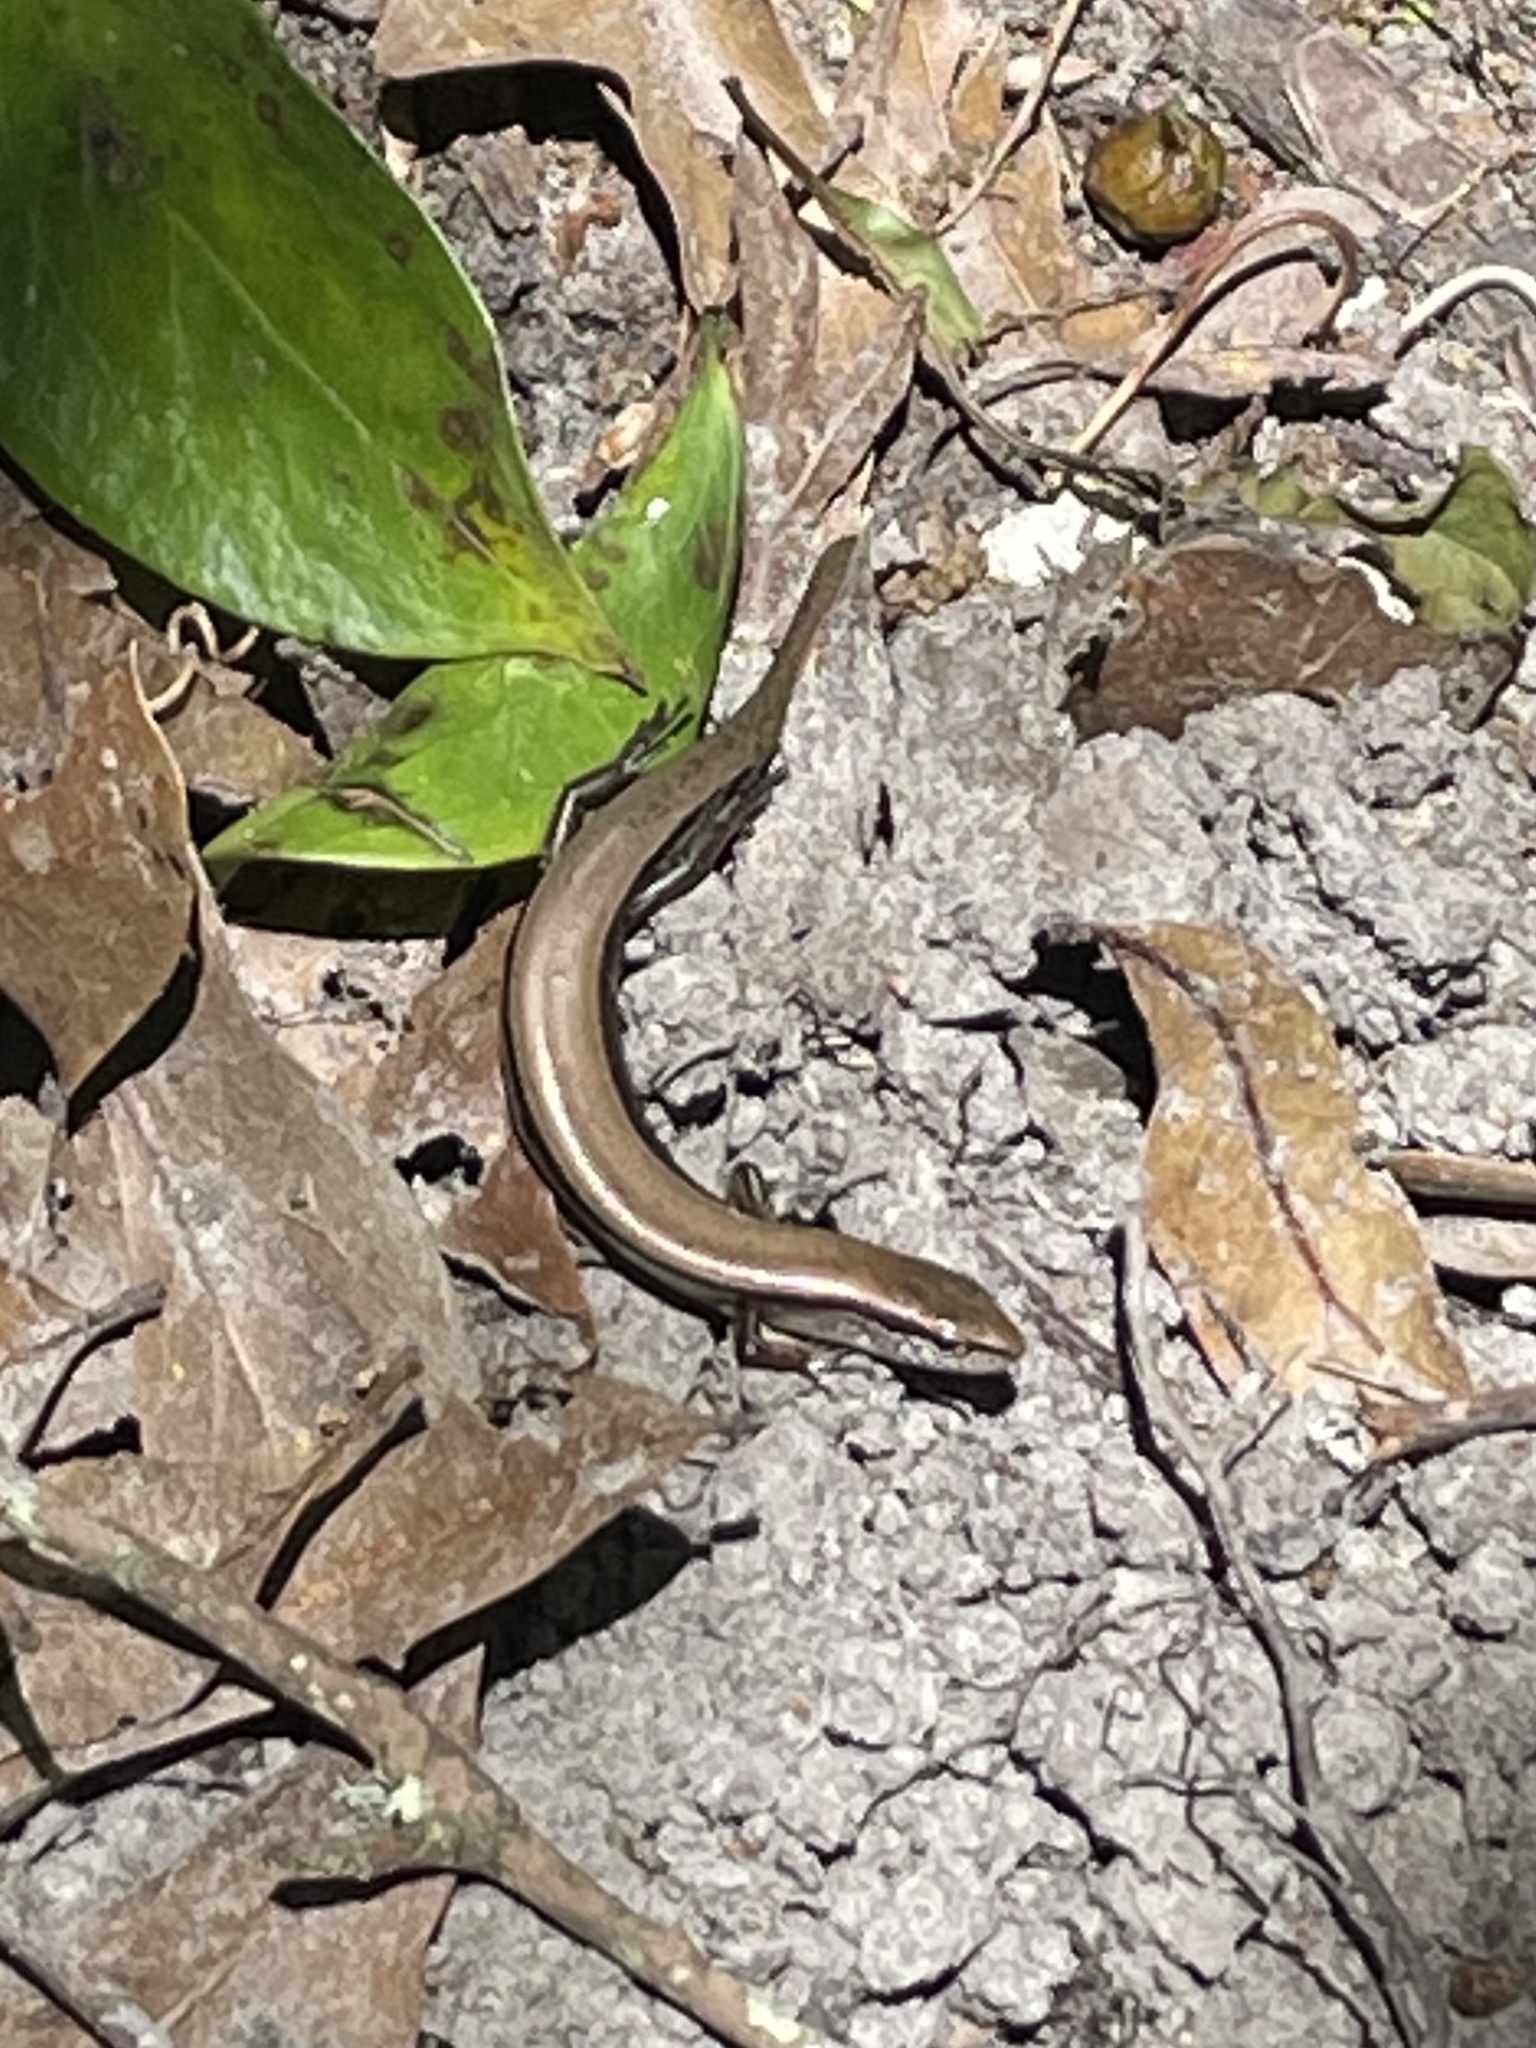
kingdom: Animalia
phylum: Chordata
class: Squamata
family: Scincidae
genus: Scincella
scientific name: Scincella lateralis
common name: Ground skink
